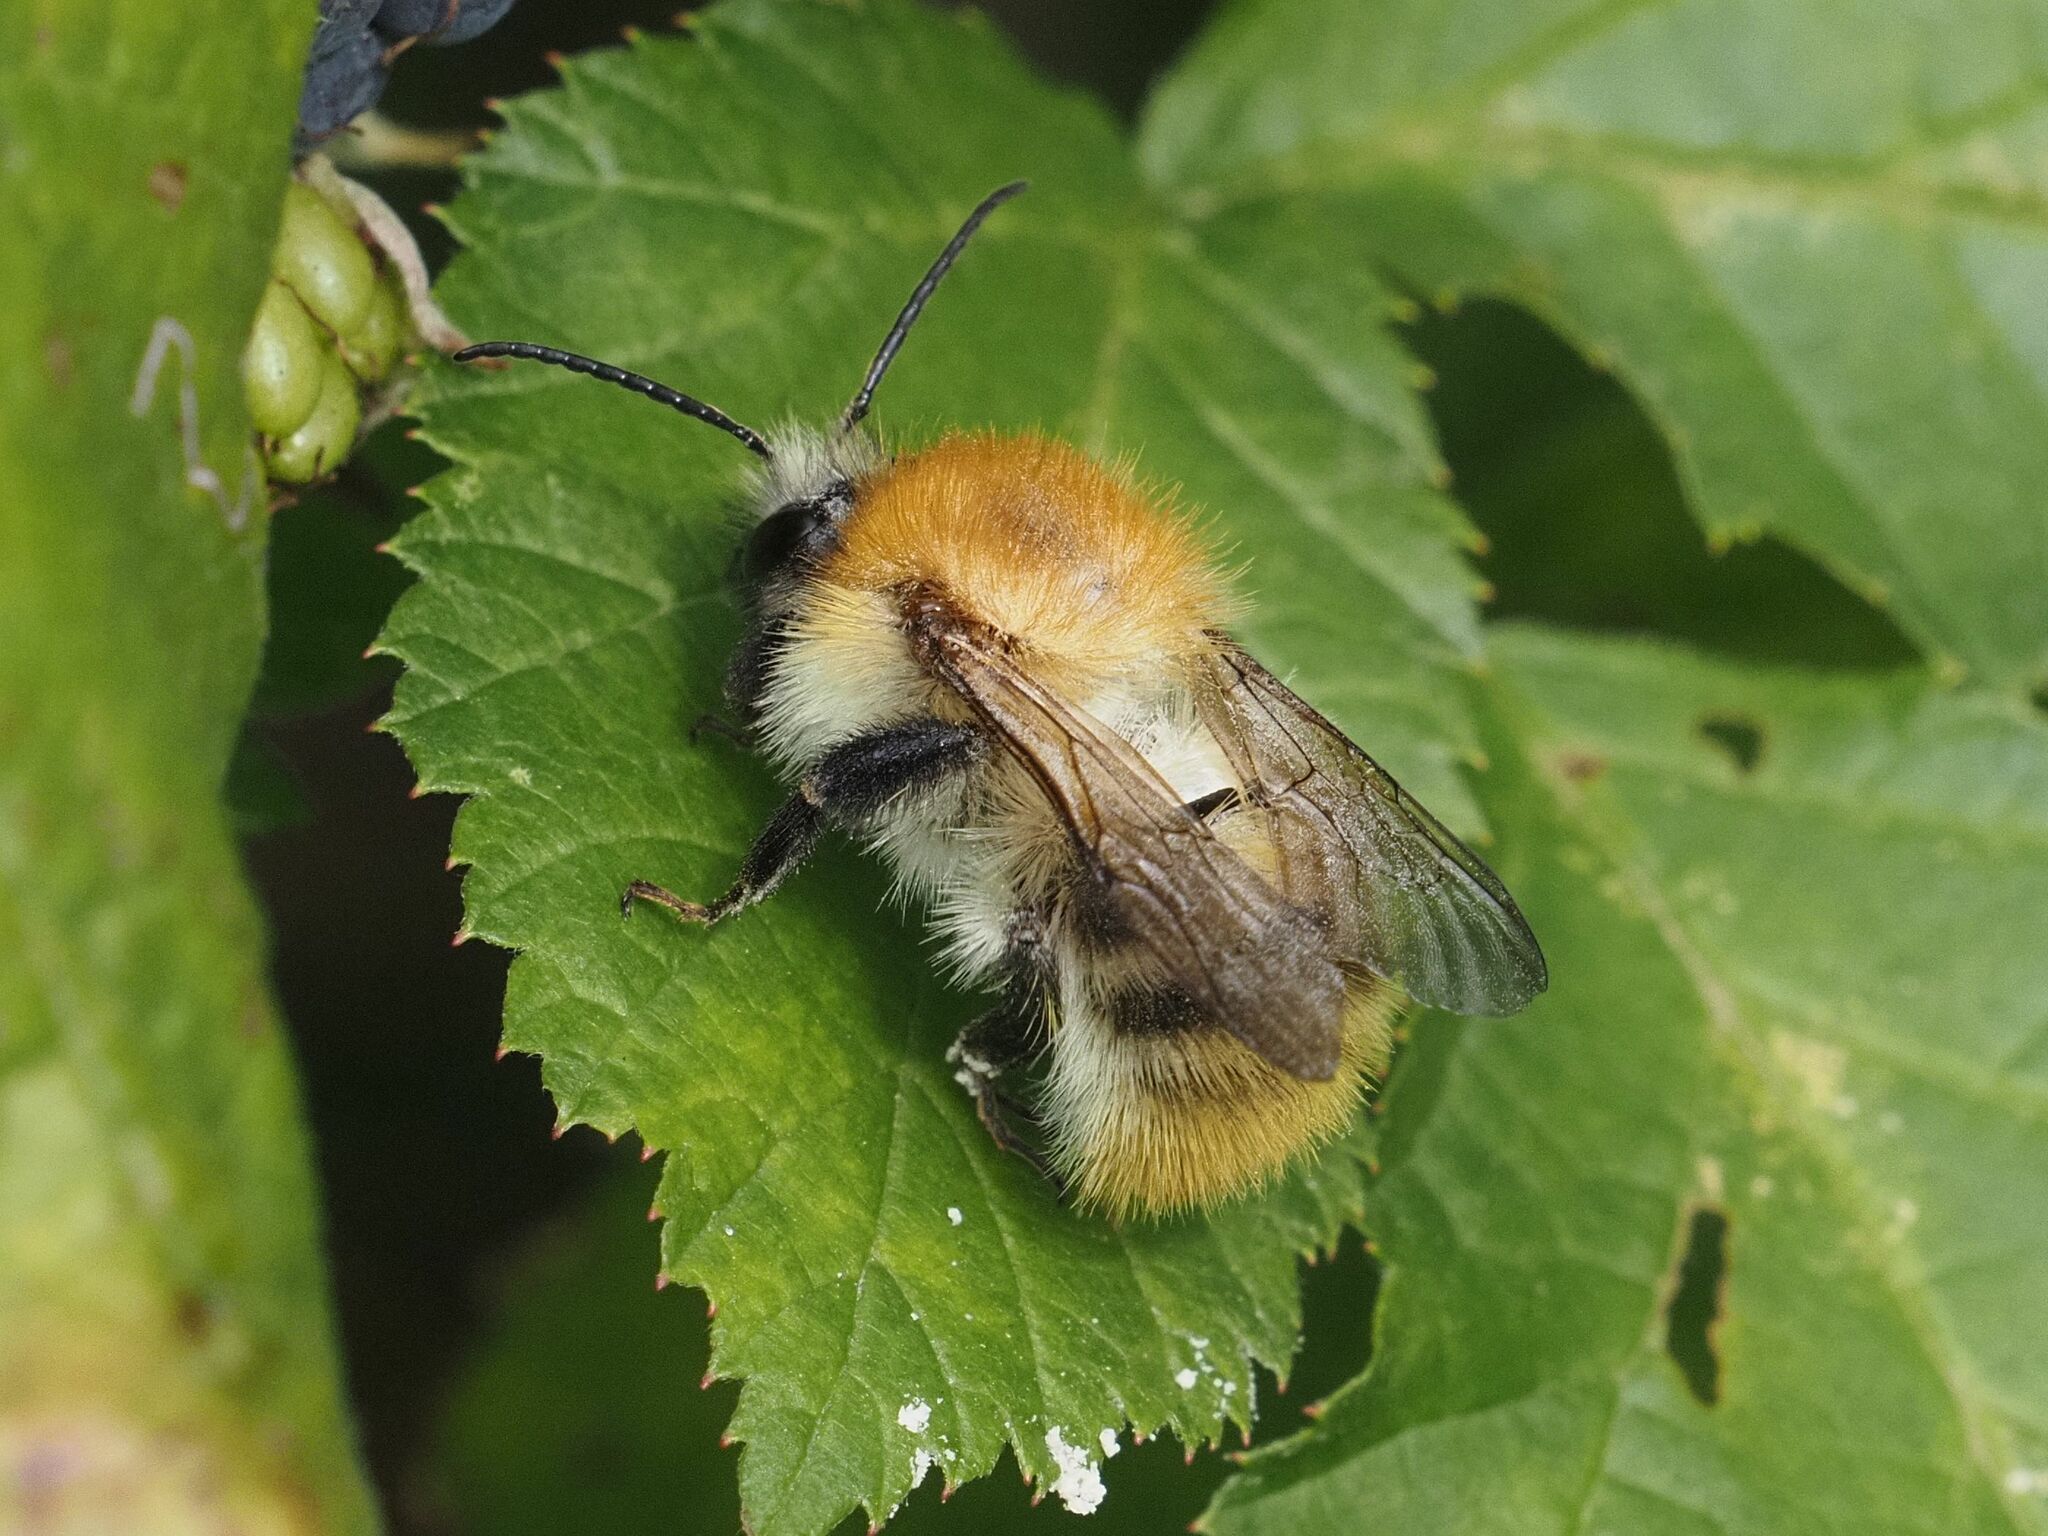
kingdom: Animalia
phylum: Arthropoda
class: Insecta
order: Hymenoptera
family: Apidae
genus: Bombus
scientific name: Bombus pascuorum
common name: Common carder bee
